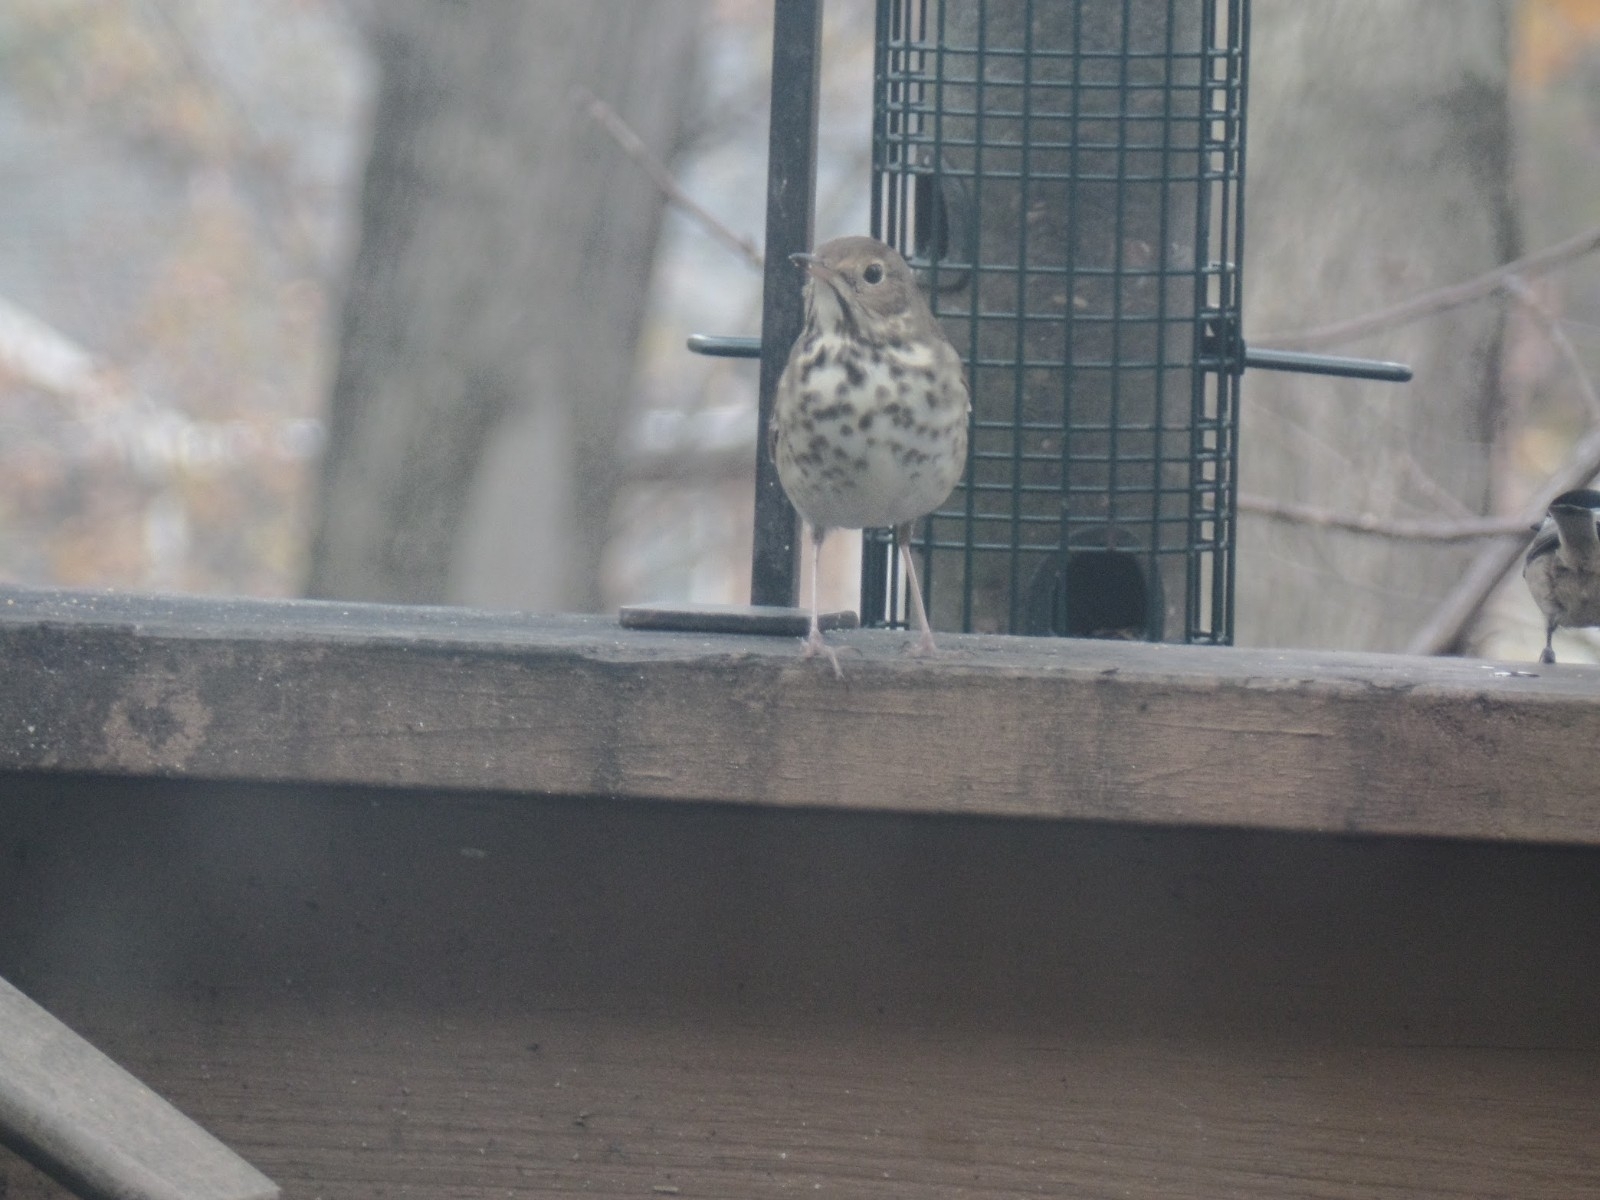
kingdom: Animalia
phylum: Chordata
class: Aves
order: Passeriformes
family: Turdidae
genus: Catharus
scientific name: Catharus guttatus
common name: Hermit thrush
